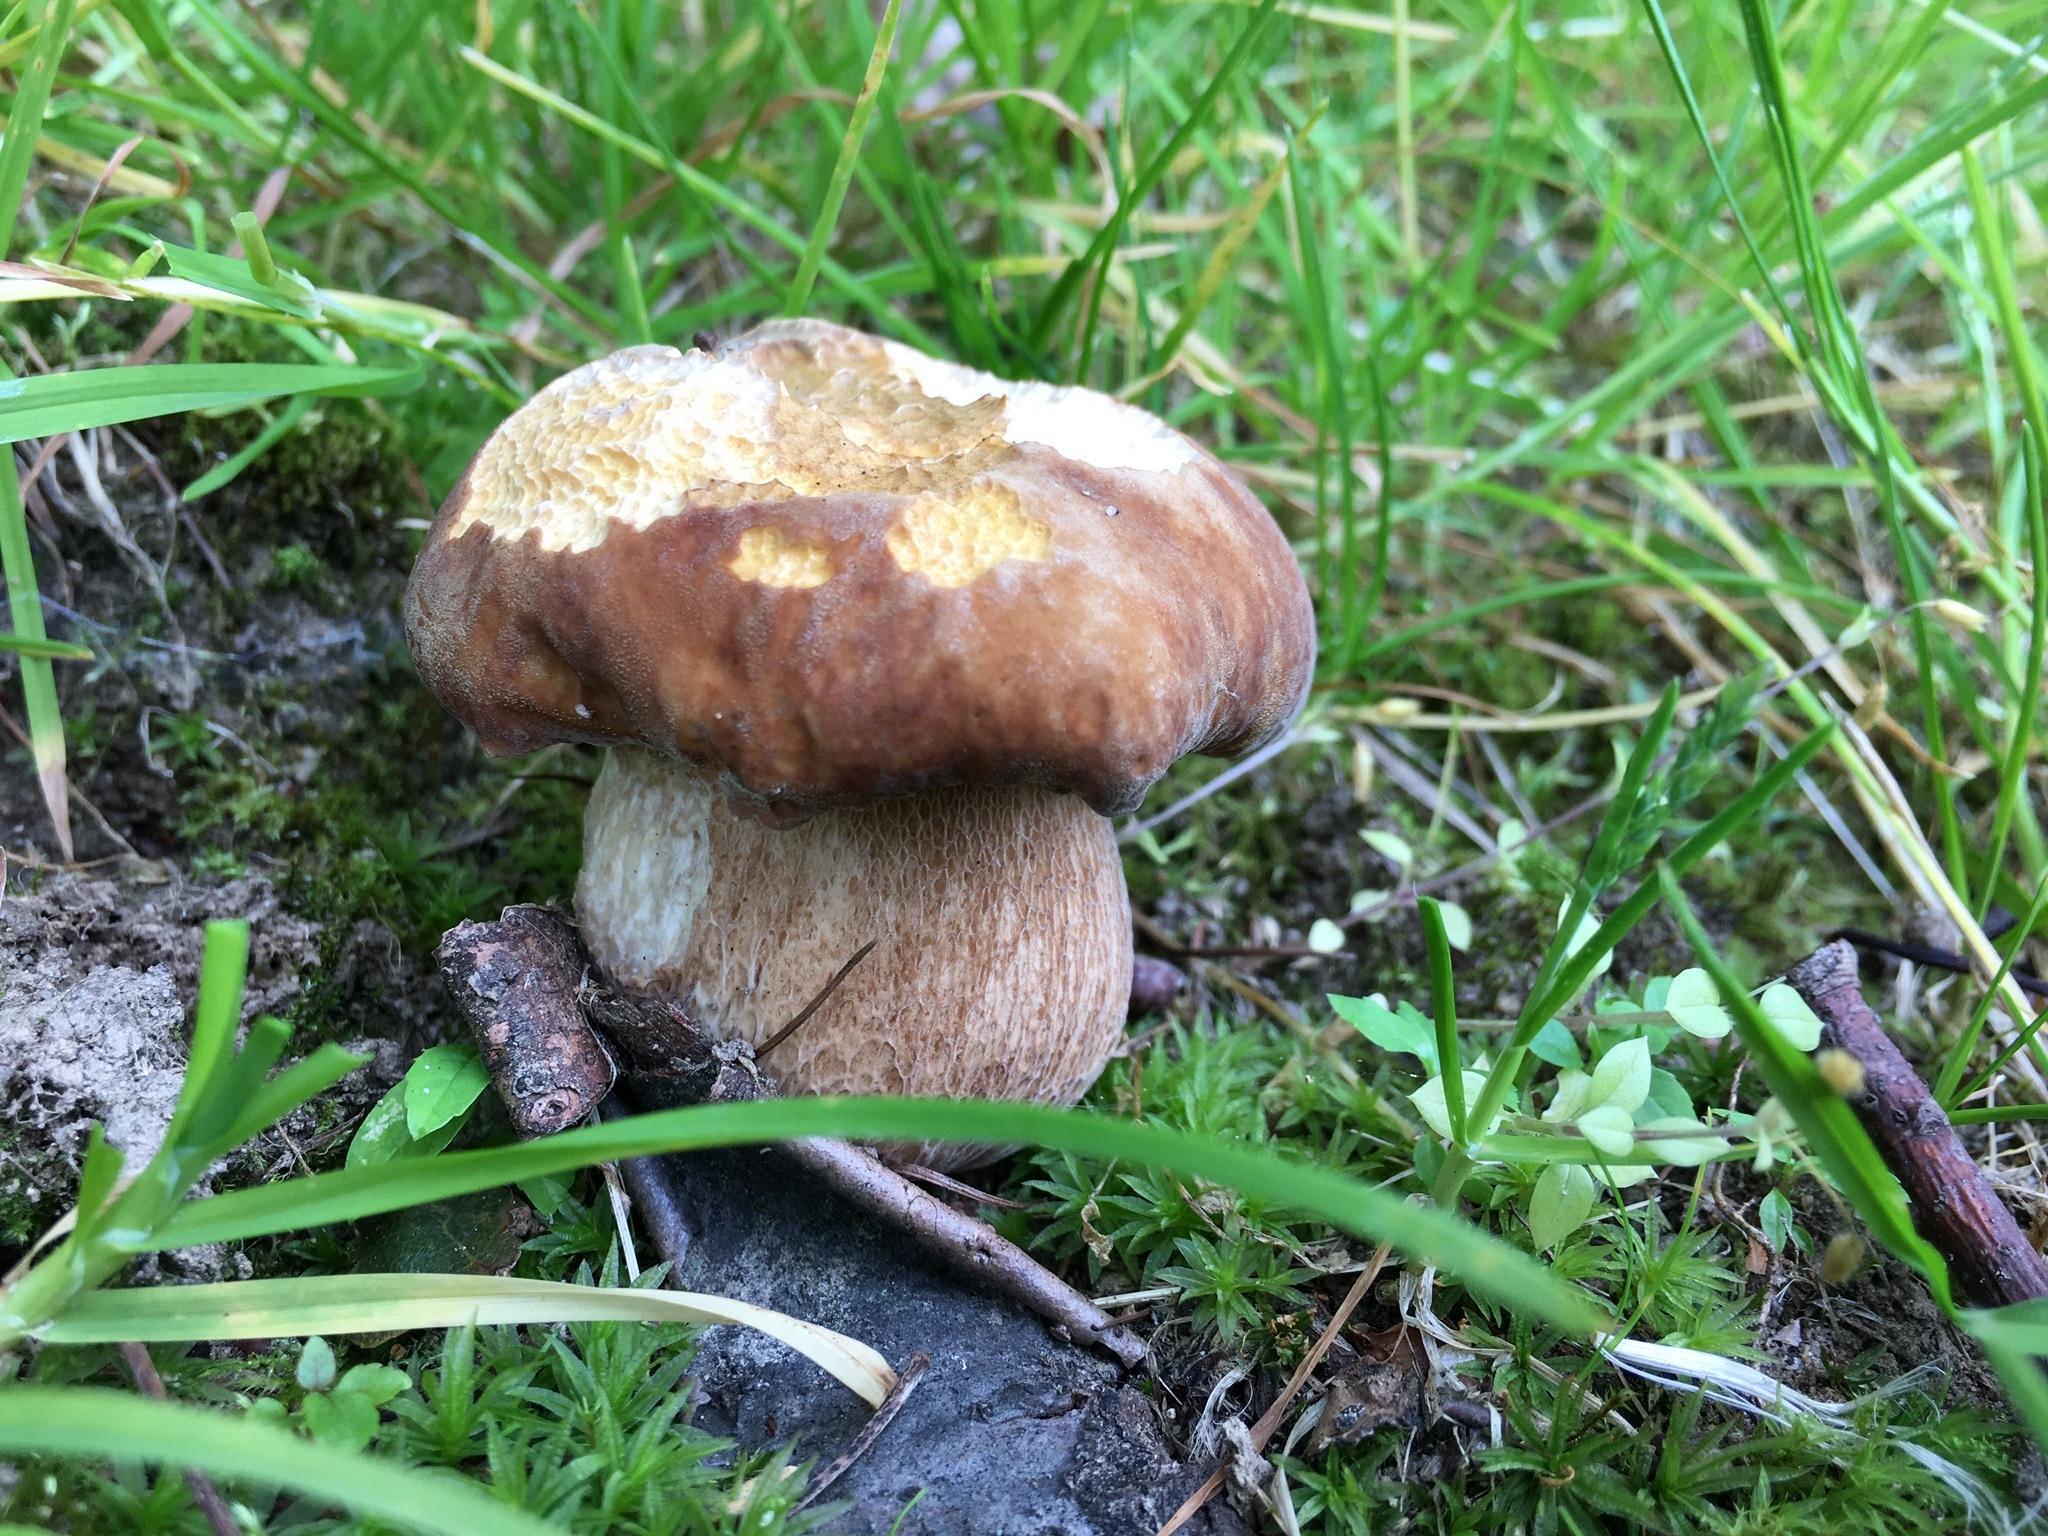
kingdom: Fungi
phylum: Basidiomycota
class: Agaricomycetes
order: Boletales
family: Boletaceae
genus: Boletus
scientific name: Boletus reticulatus
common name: Summer bolete
